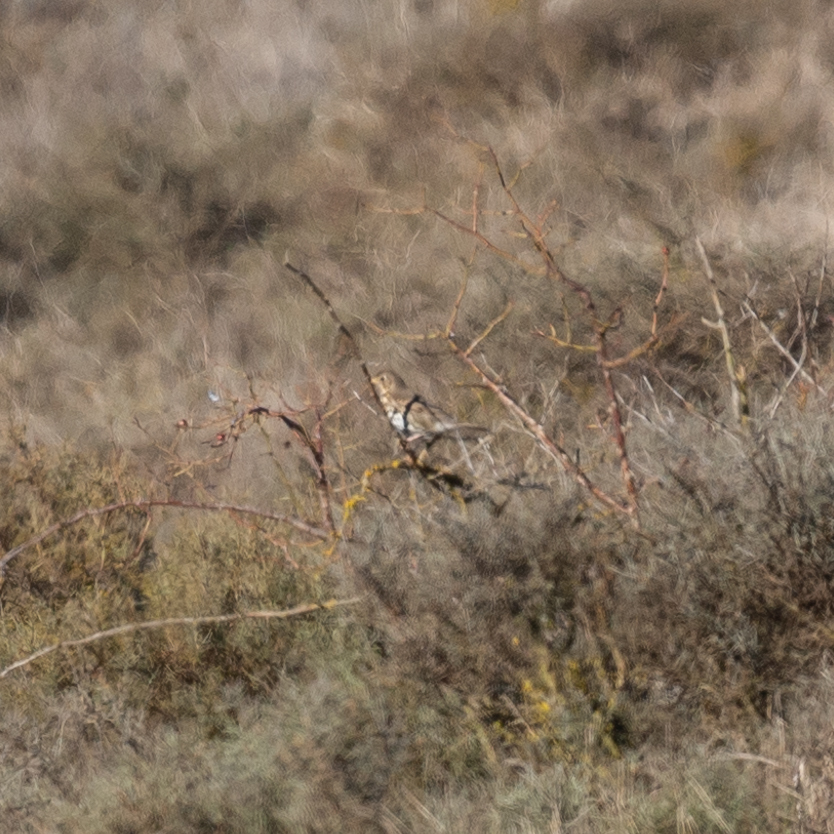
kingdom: Animalia
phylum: Chordata
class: Aves
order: Passeriformes
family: Turdidae
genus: Turdus
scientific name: Turdus philomelos
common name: Song thrush
